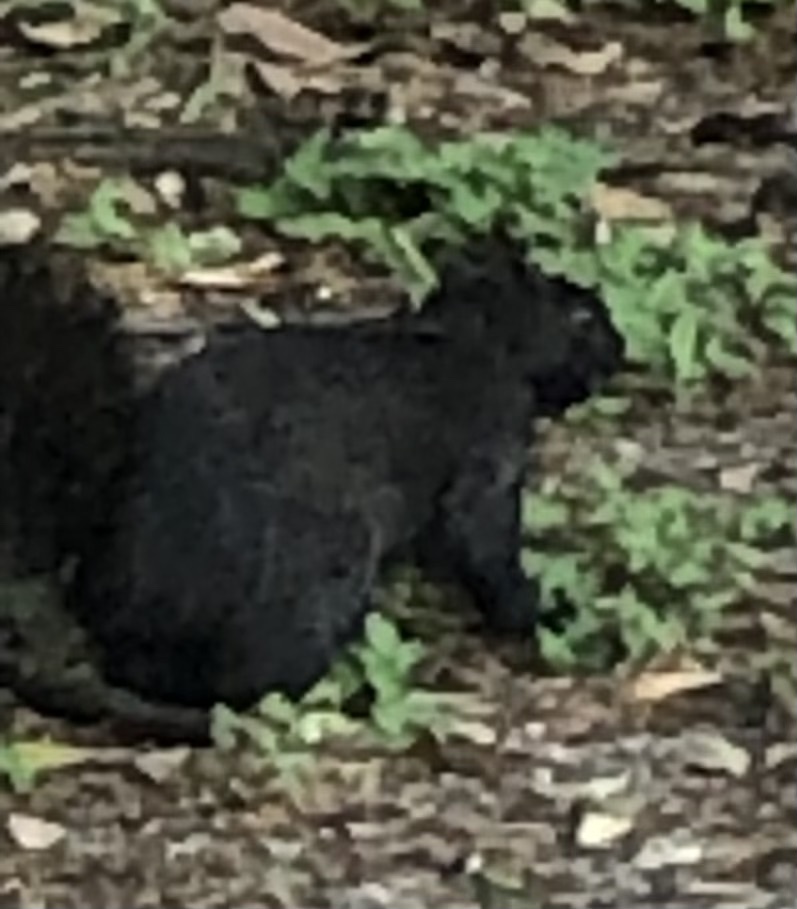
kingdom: Animalia
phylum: Chordata
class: Mammalia
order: Rodentia
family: Sciuridae
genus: Sciurus
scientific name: Sciurus carolinensis
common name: Eastern gray squirrel
